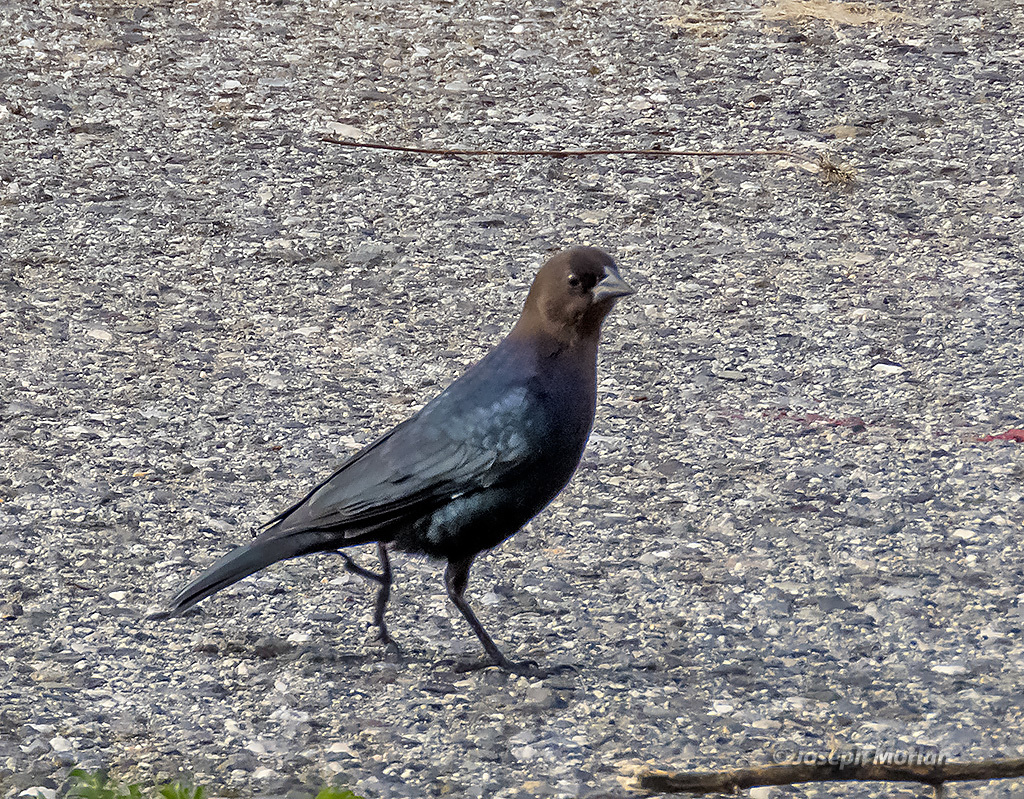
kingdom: Animalia
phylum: Chordata
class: Aves
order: Passeriformes
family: Icteridae
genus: Molothrus
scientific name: Molothrus ater
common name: Brown-headed cowbird
